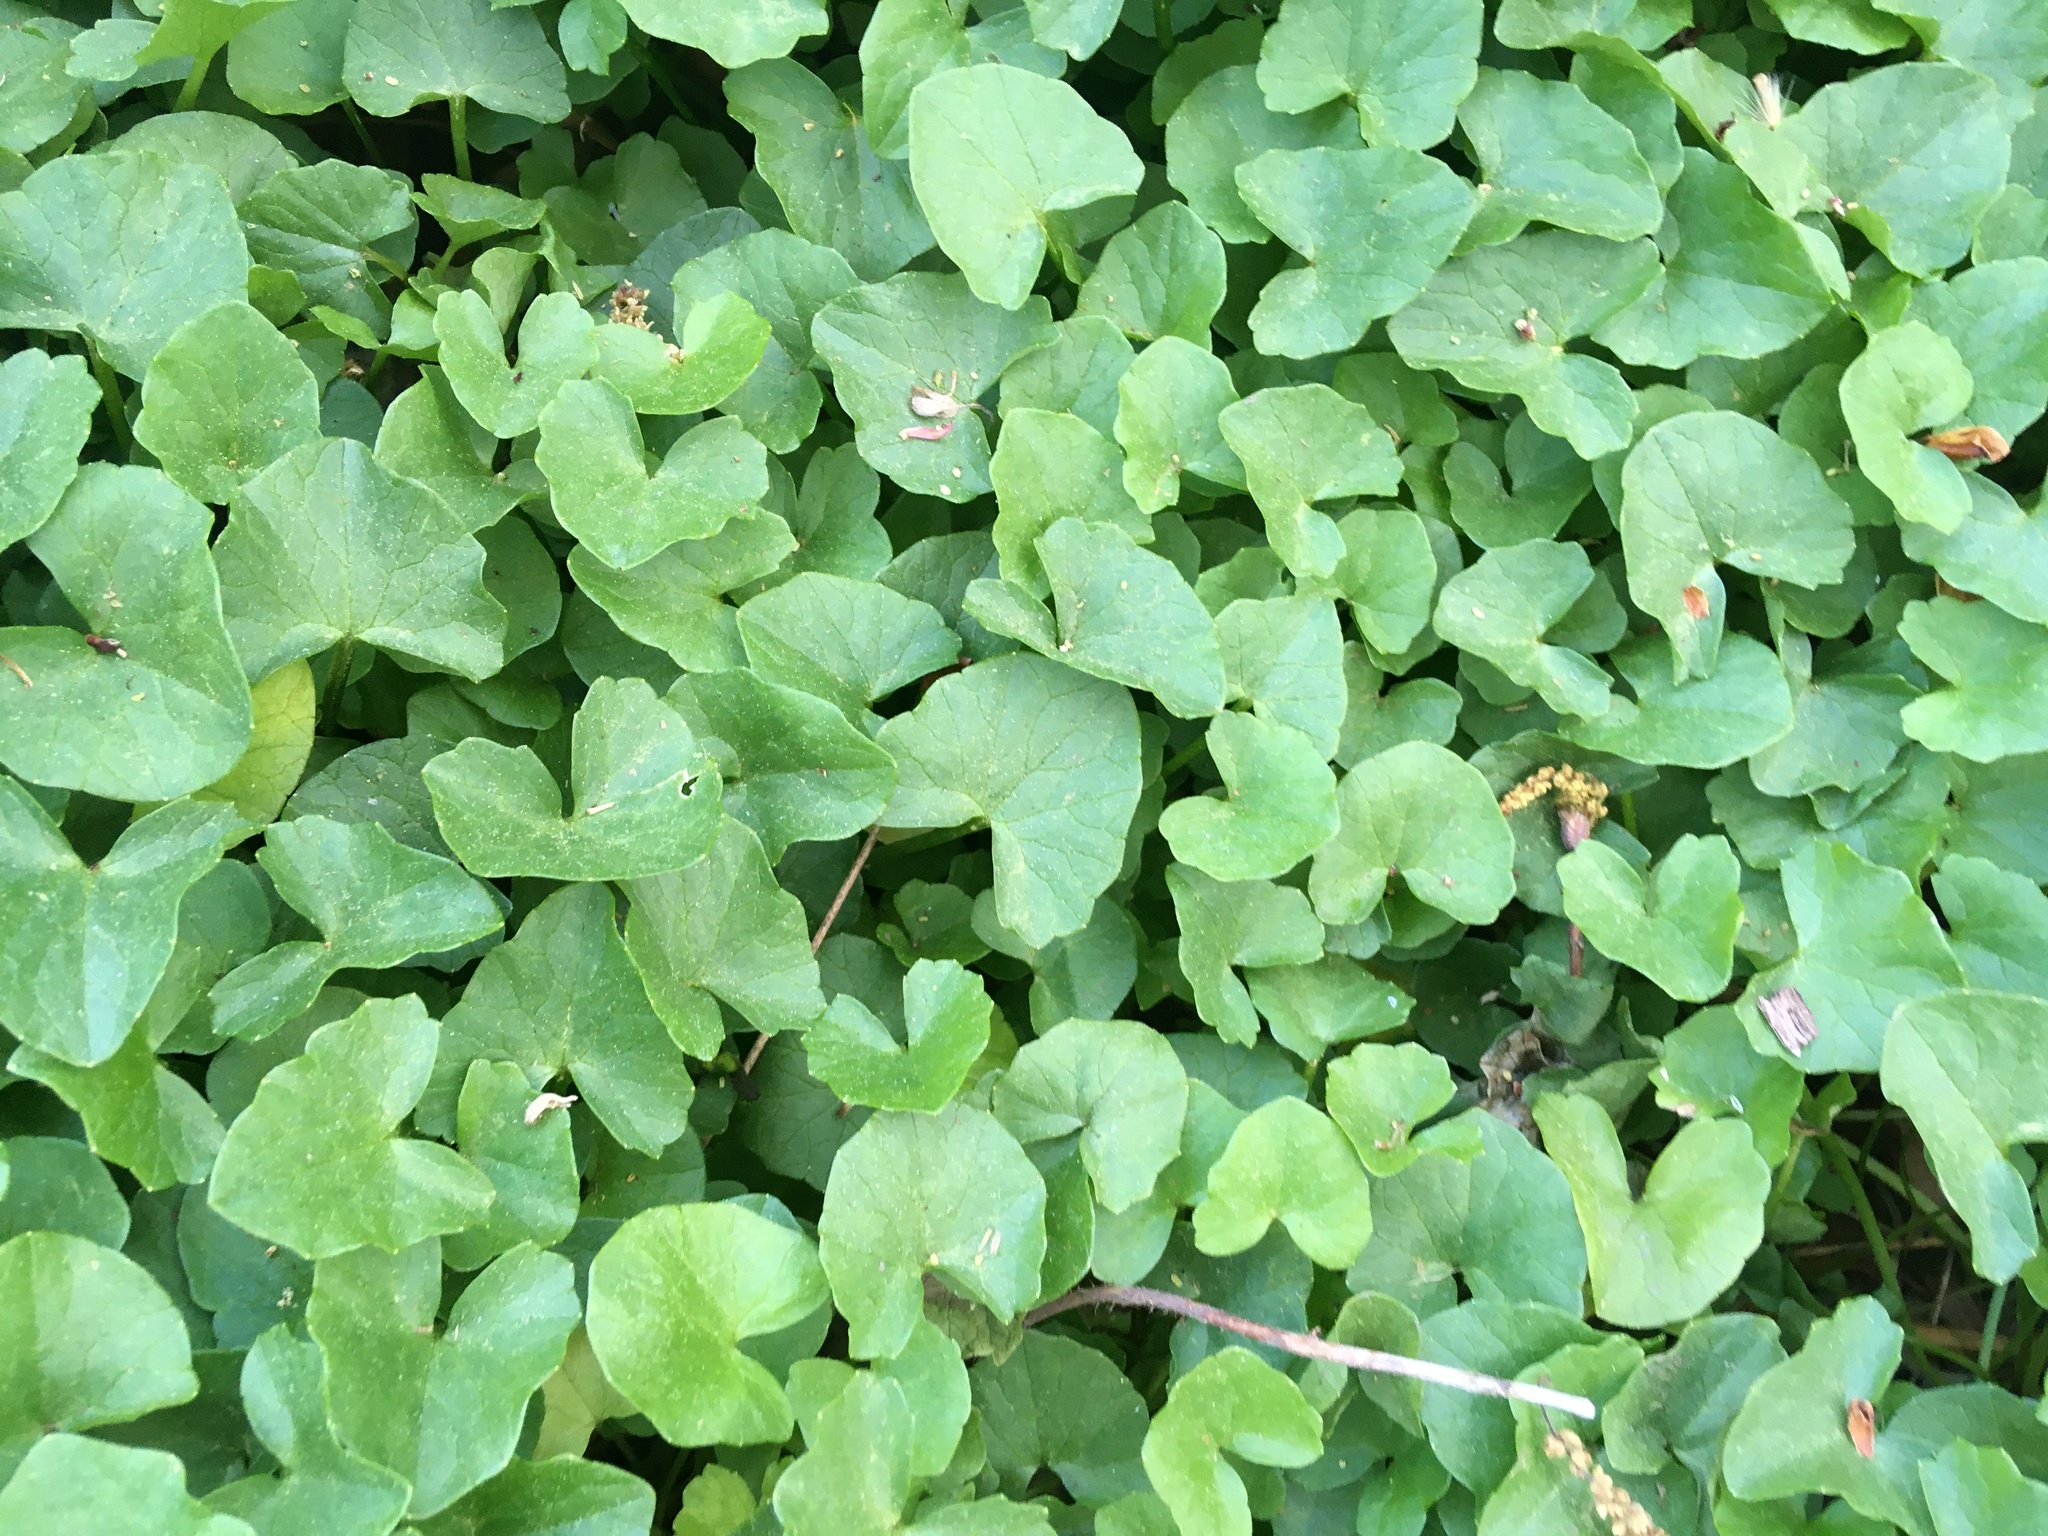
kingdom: Plantae
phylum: Tracheophyta
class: Magnoliopsida
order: Ranunculales
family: Ranunculaceae
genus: Ficaria
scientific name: Ficaria verna
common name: Lesser celandine
